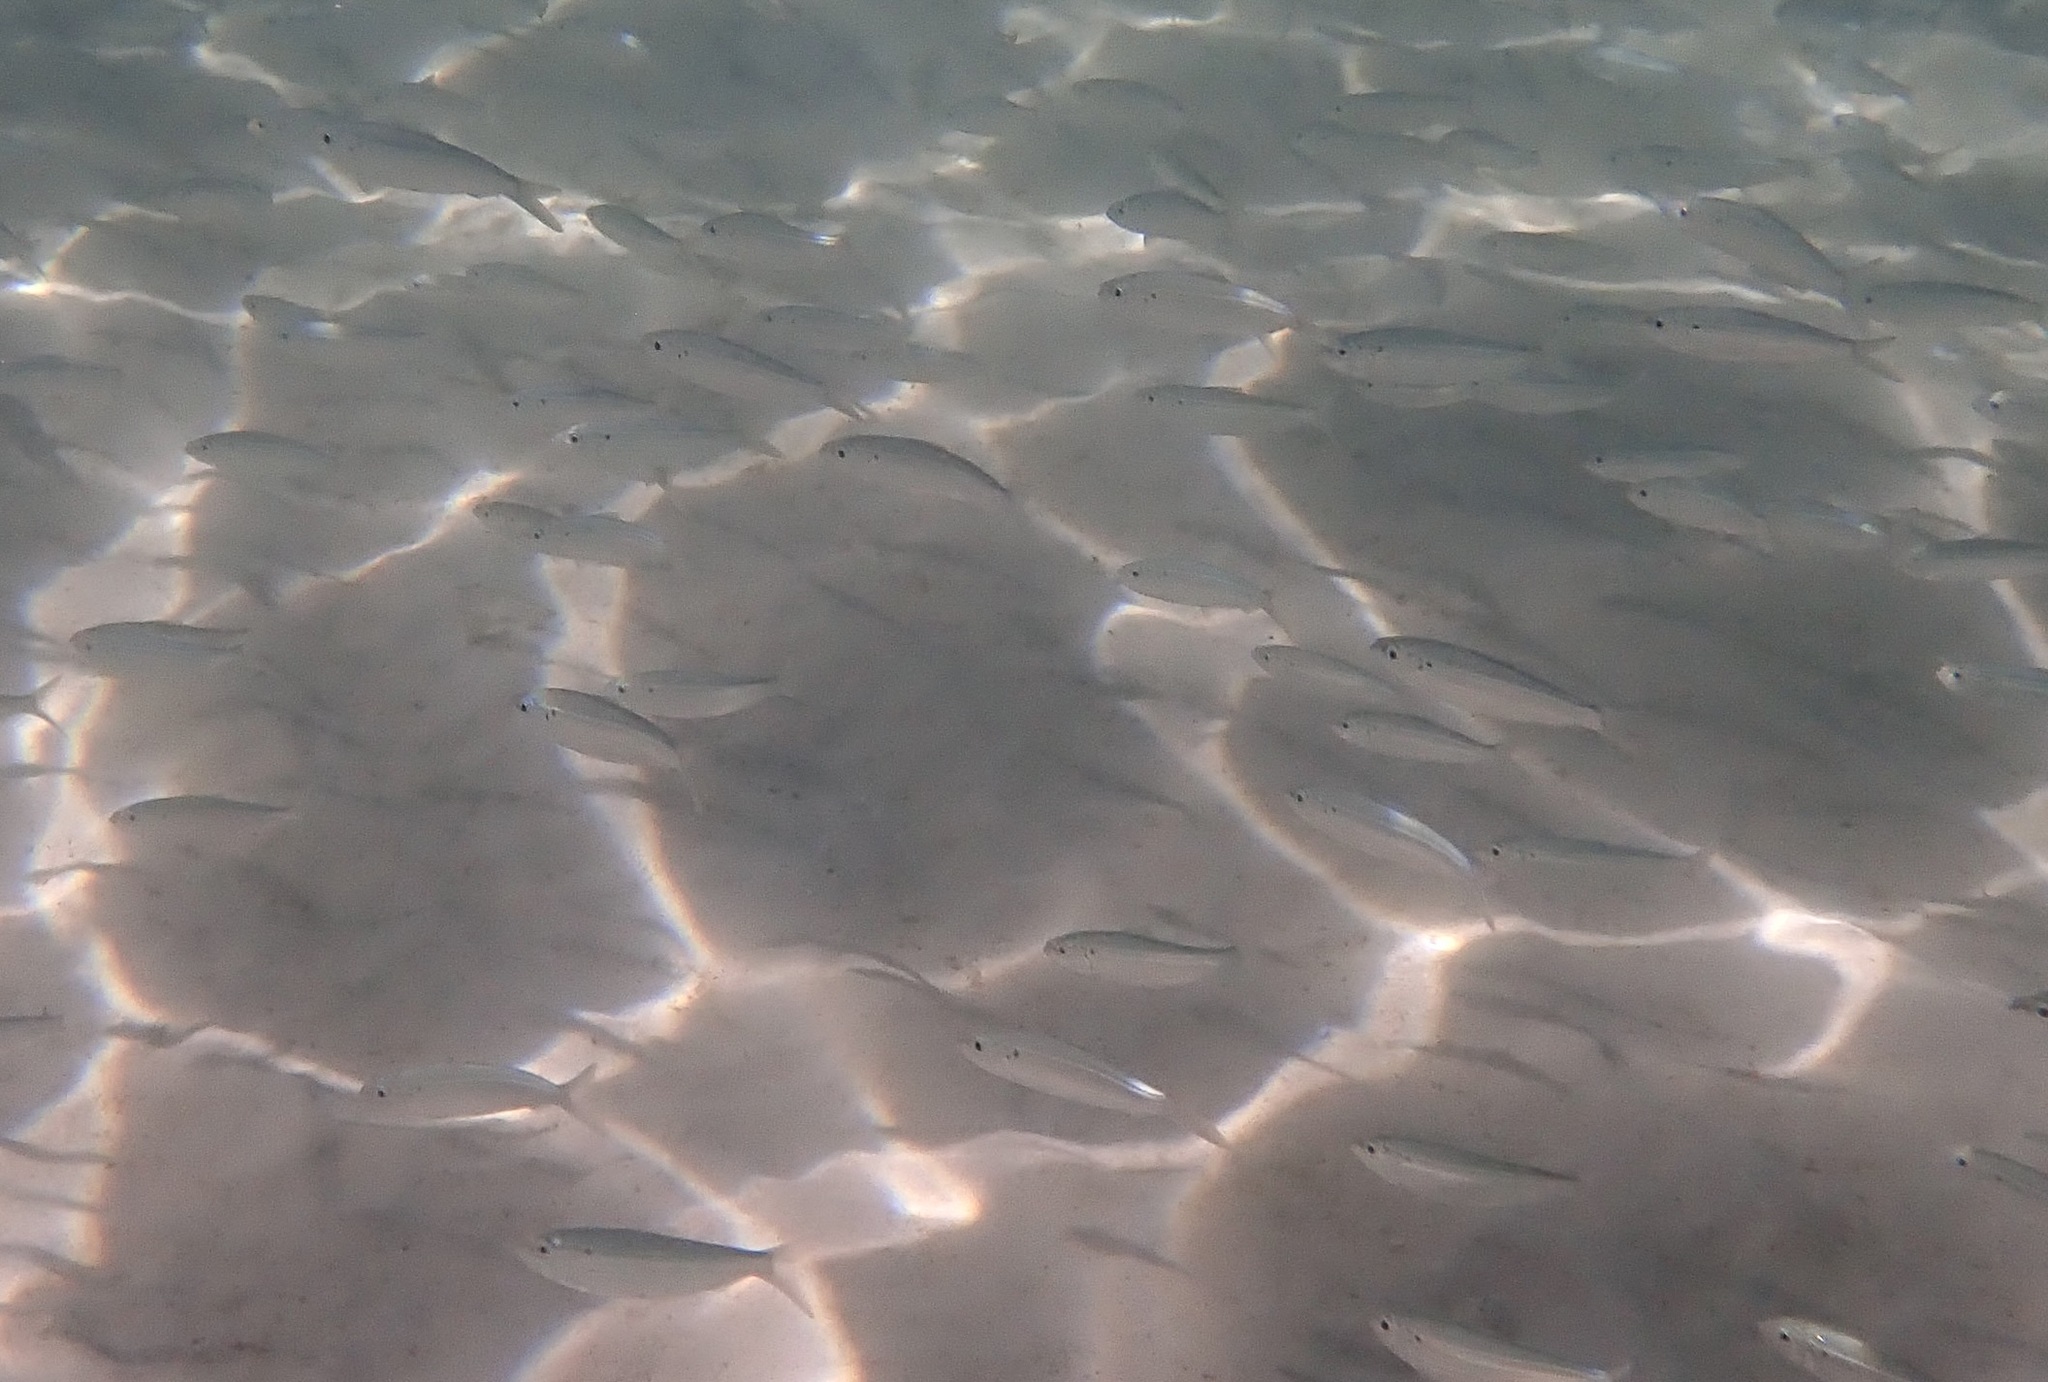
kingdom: Animalia
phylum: Chordata
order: Clupeiformes
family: Clupeidae
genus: Harengula
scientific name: Harengula thrissina
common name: Flatiron herring
